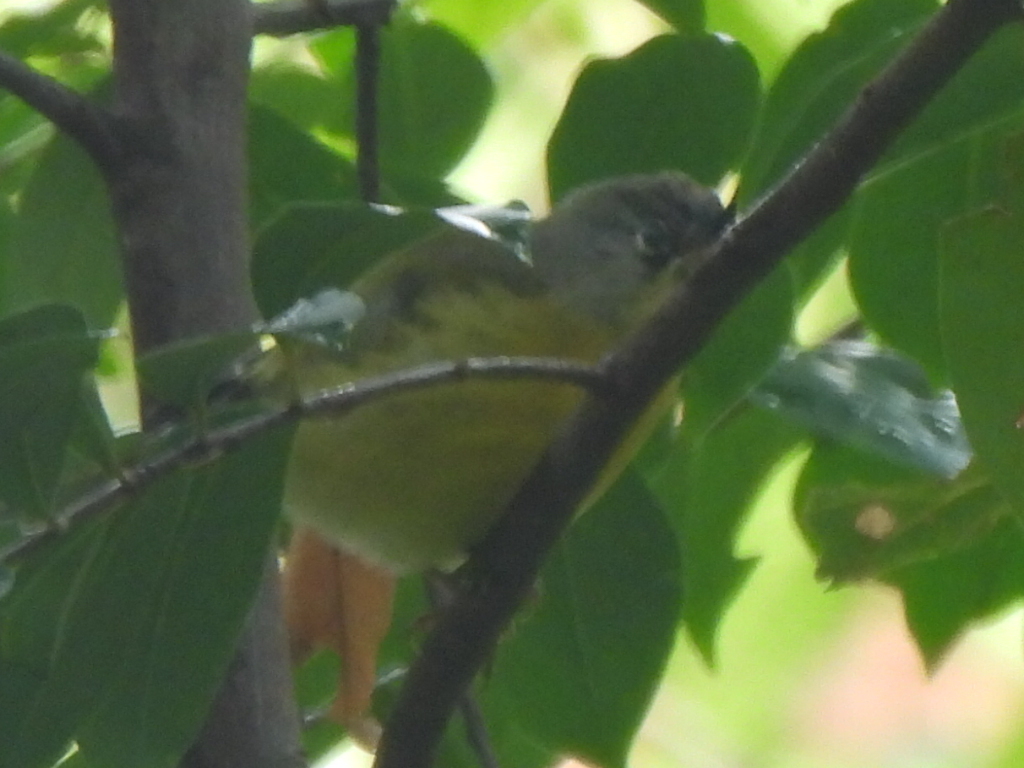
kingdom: Animalia
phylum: Chordata
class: Aves
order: Passeriformes
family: Parulidae
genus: Leiothlypis
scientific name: Leiothlypis ruficapilla
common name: Nashville warbler
